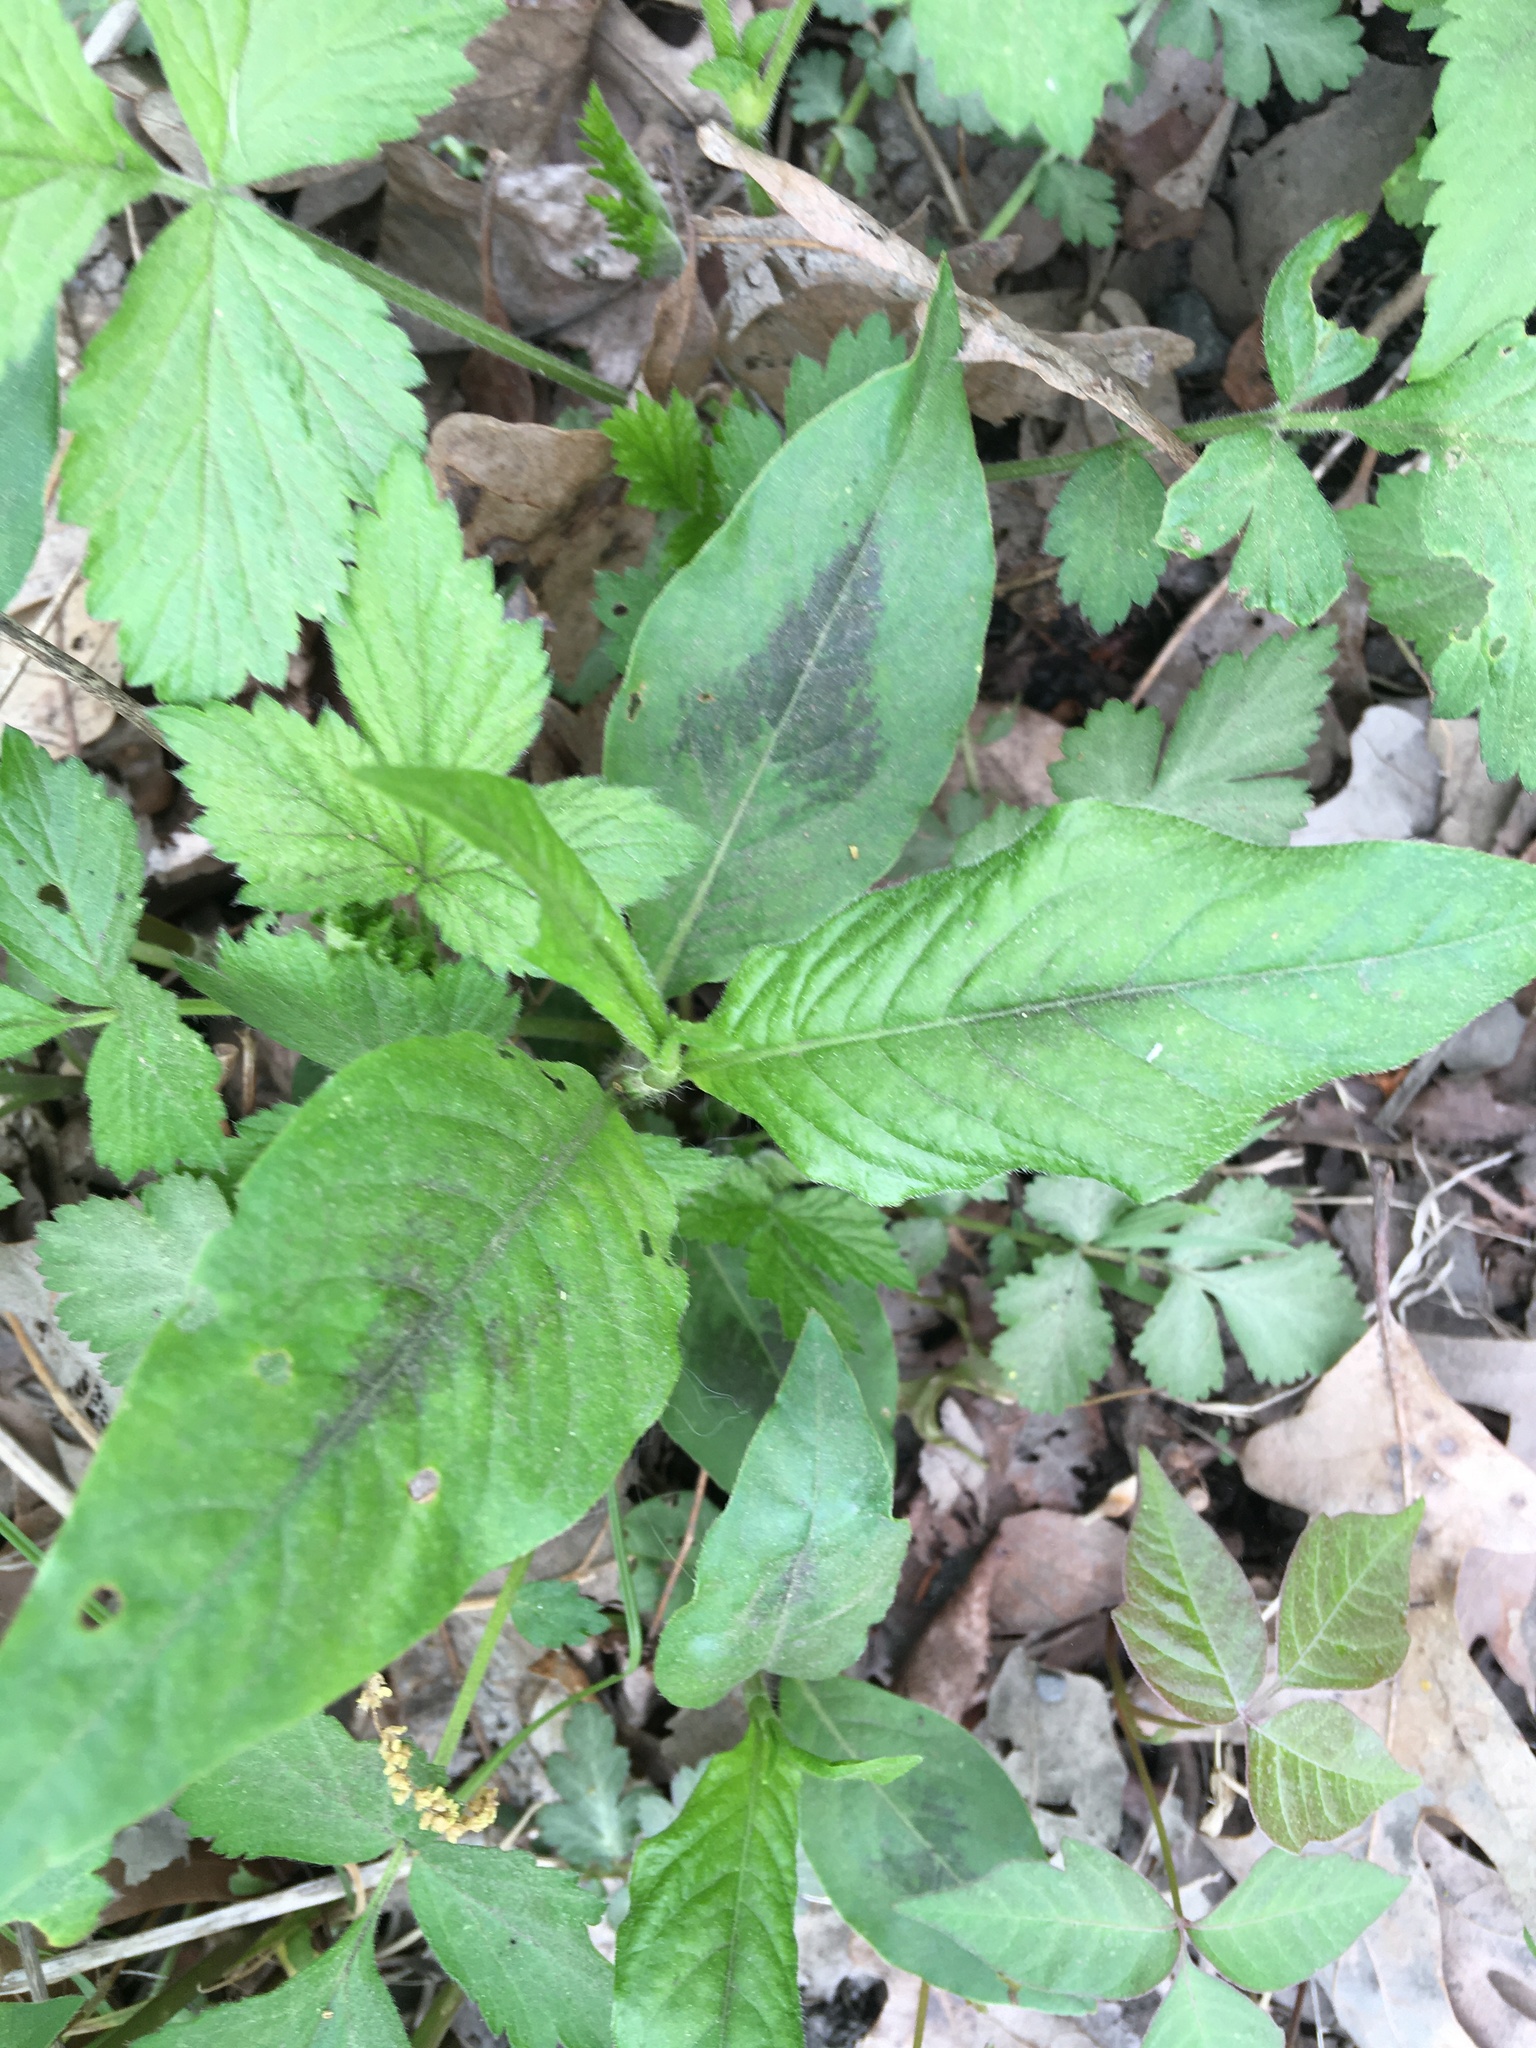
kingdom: Plantae
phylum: Tracheophyta
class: Magnoliopsida
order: Caryophyllales
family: Polygonaceae
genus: Persicaria
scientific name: Persicaria virginiana
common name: Jumpseed
